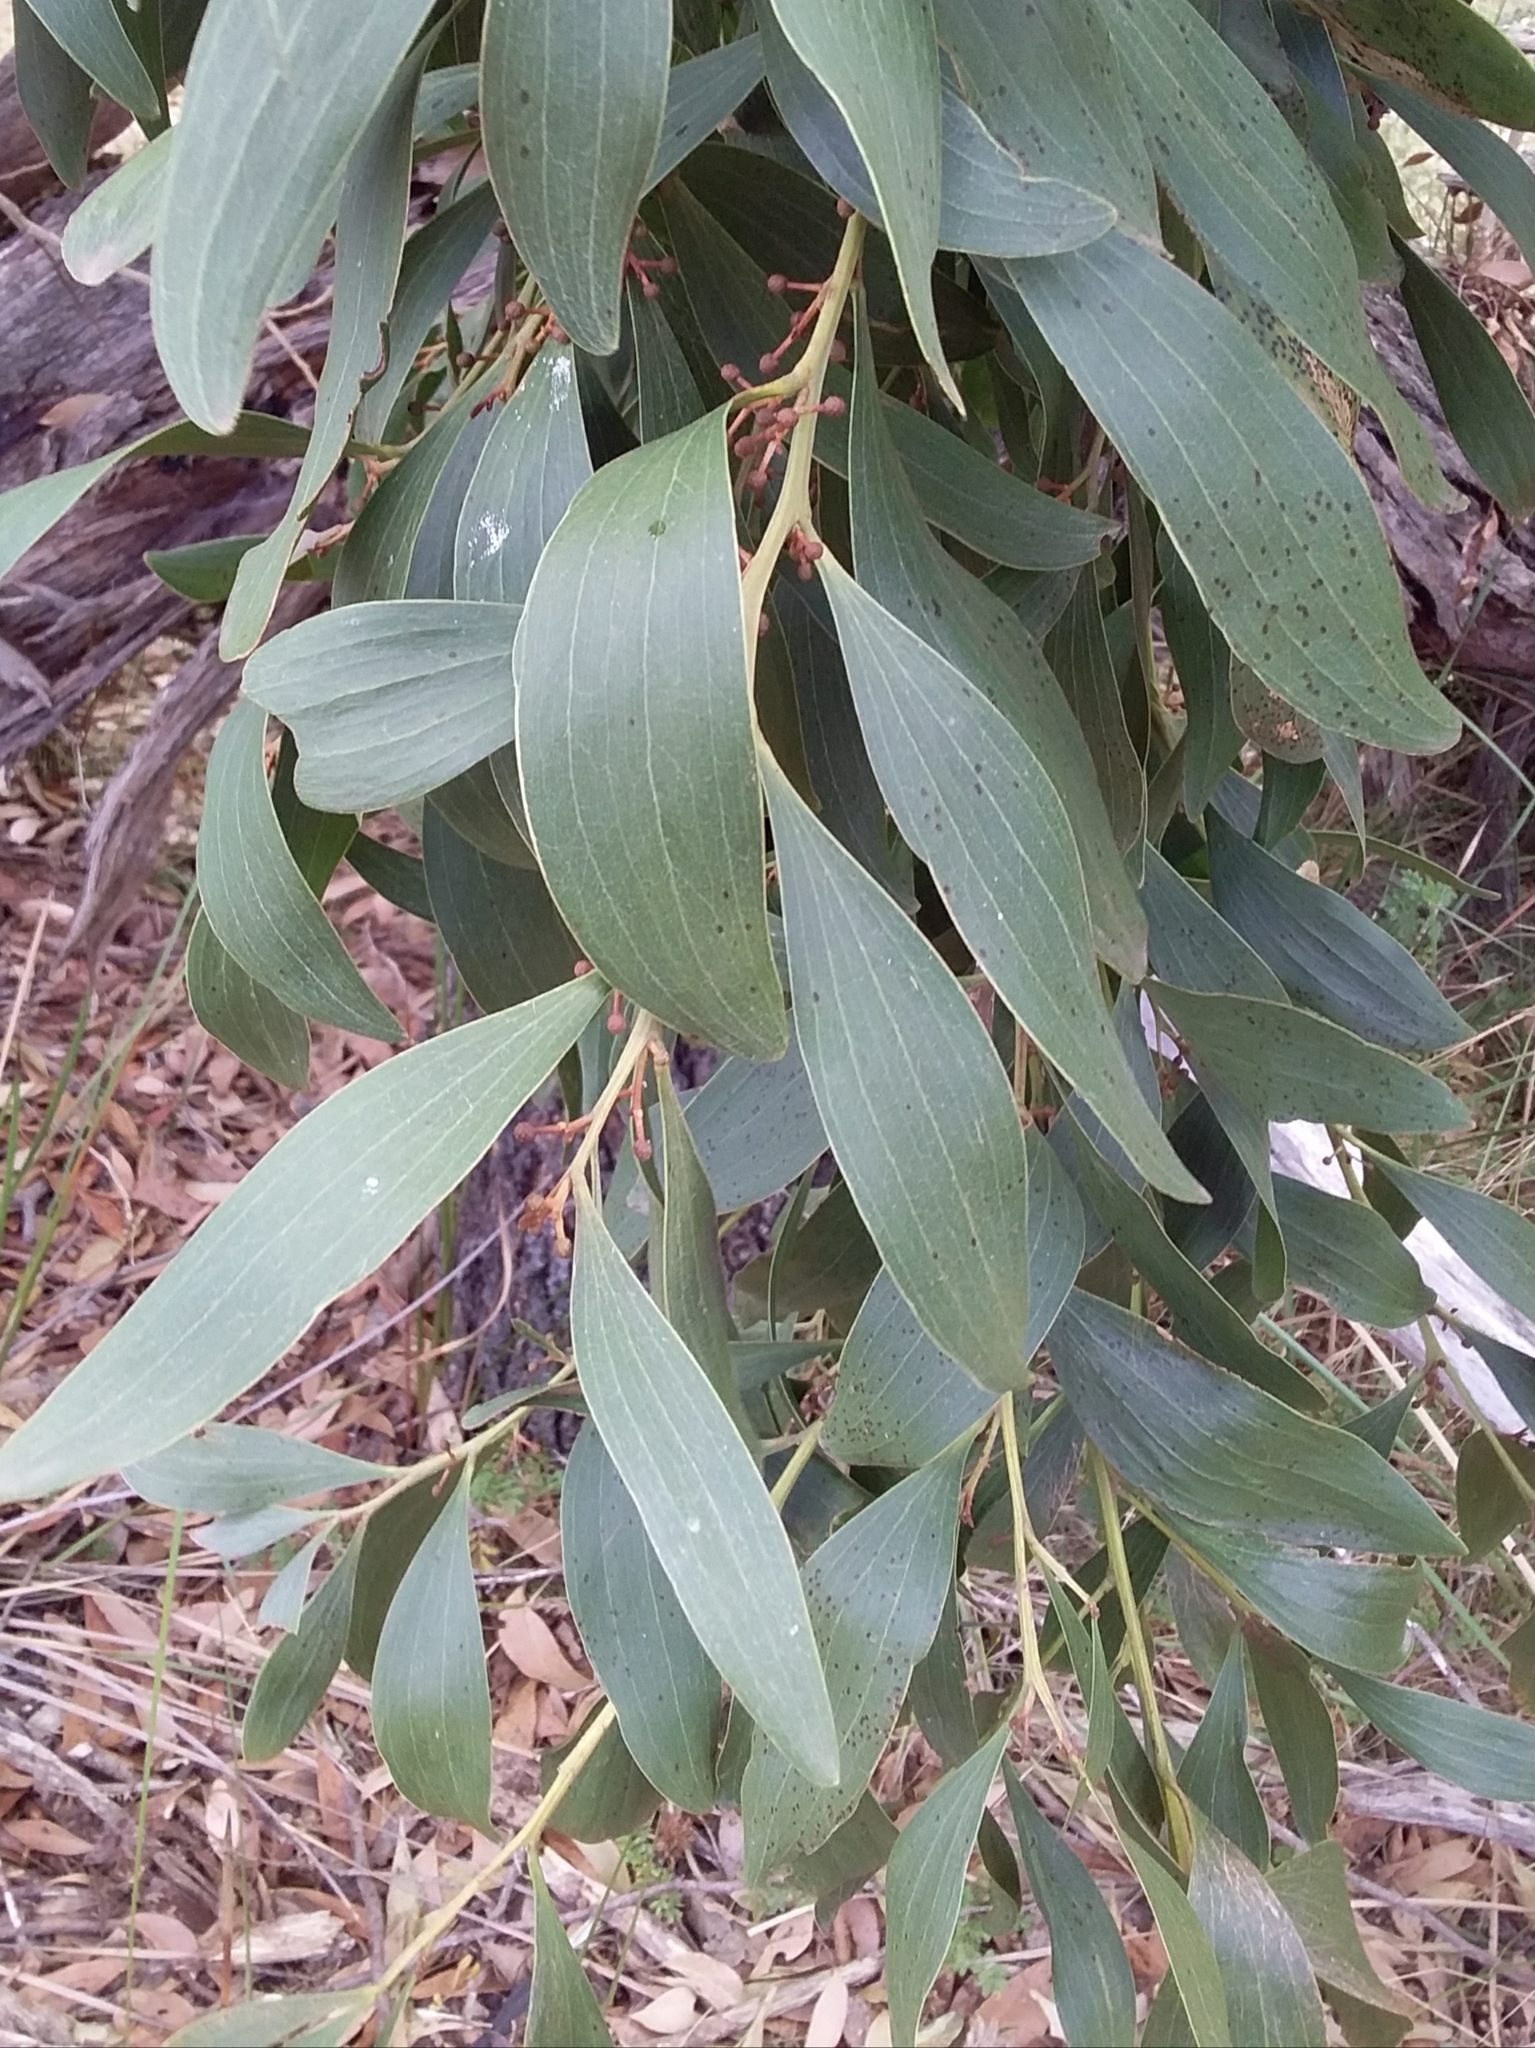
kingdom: Plantae
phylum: Tracheophyta
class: Magnoliopsida
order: Fabales
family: Fabaceae
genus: Acacia
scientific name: Acacia melanoxylon
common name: Blackwood
